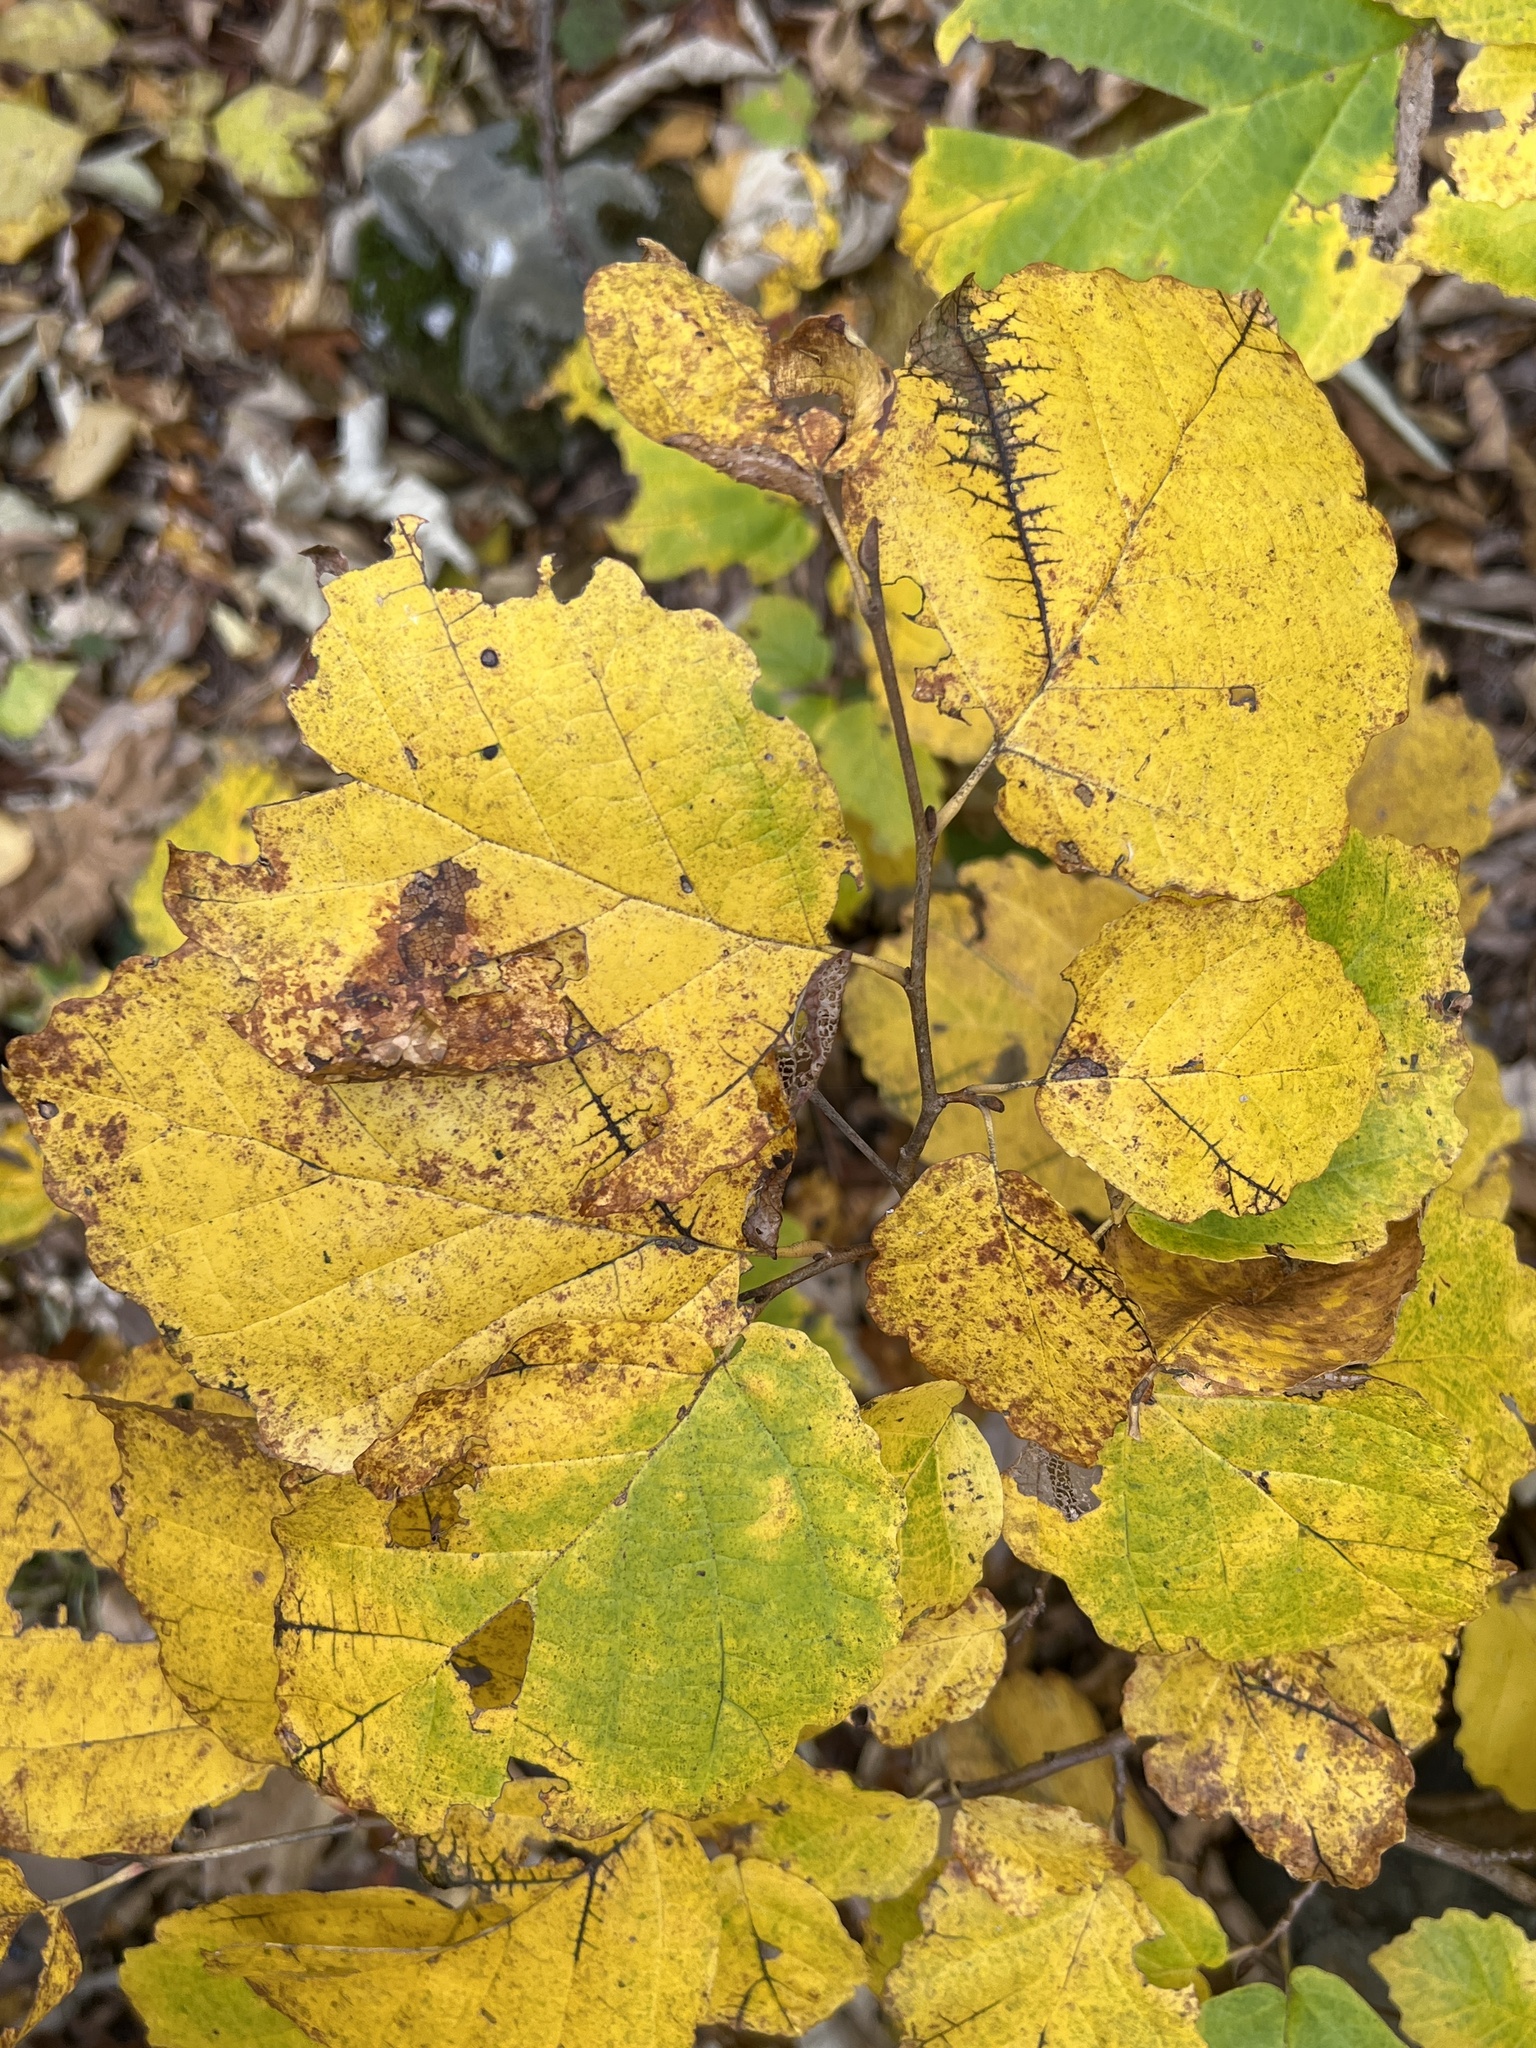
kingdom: Plantae
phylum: Tracheophyta
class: Magnoliopsida
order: Saxifragales
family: Hamamelidaceae
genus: Hamamelis
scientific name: Hamamelis virginiana
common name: Witch-hazel
